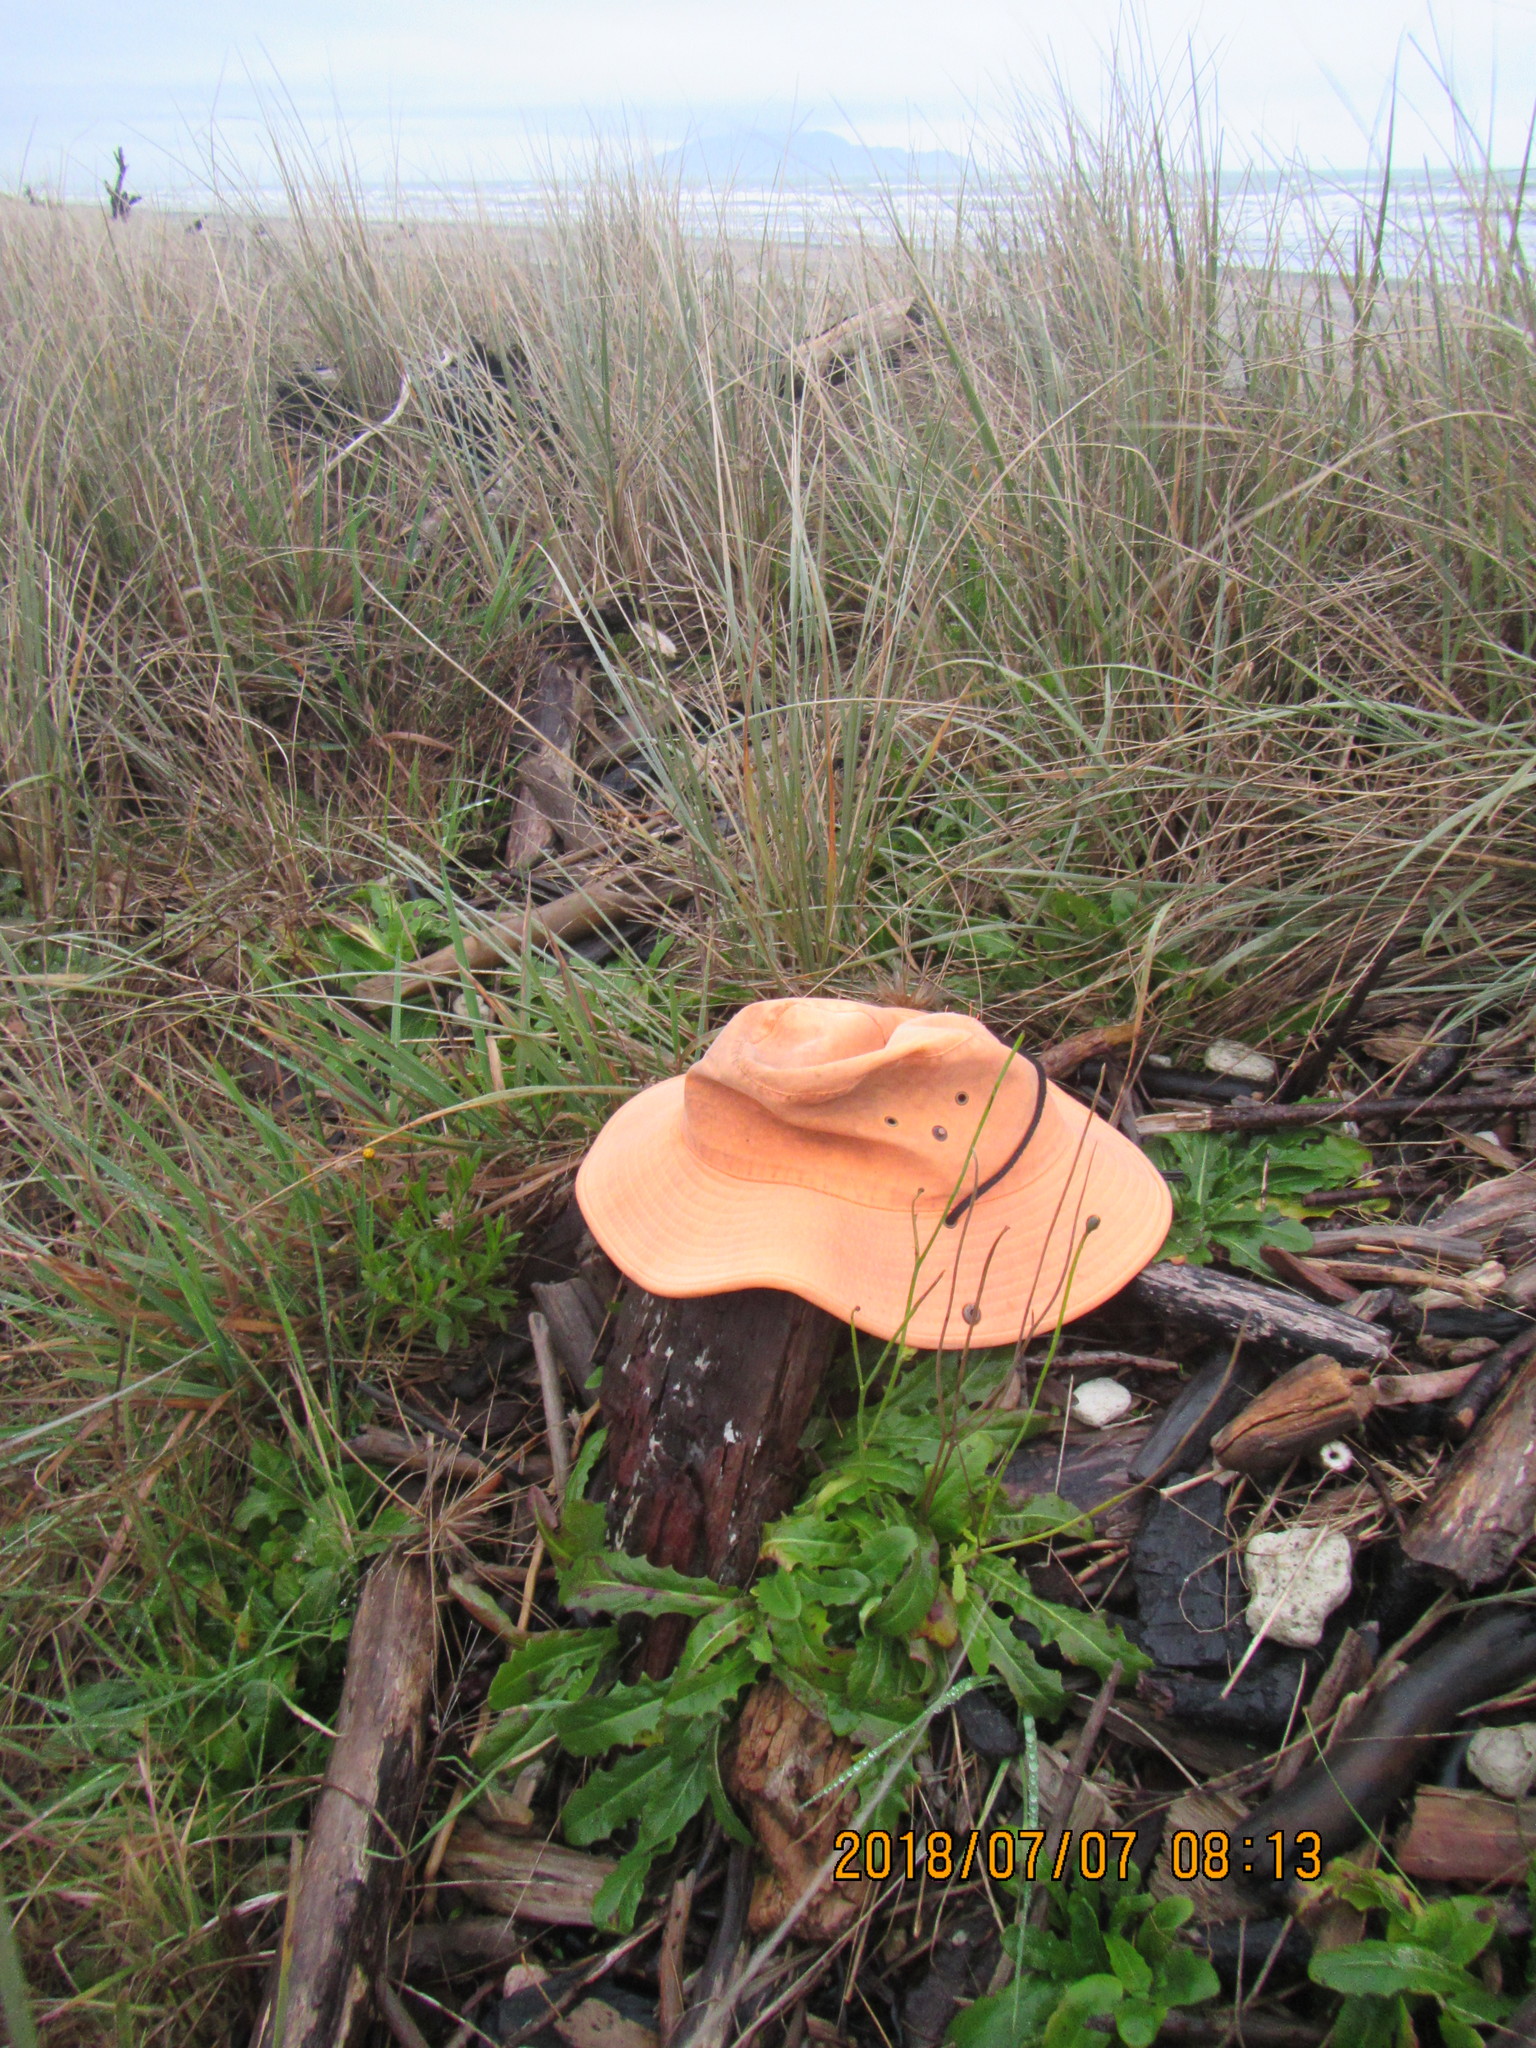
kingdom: Animalia
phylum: Arthropoda
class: Arachnida
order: Opiliones
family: Phalangiidae
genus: Phalangium
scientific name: Phalangium opilio
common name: Daddy longleg
